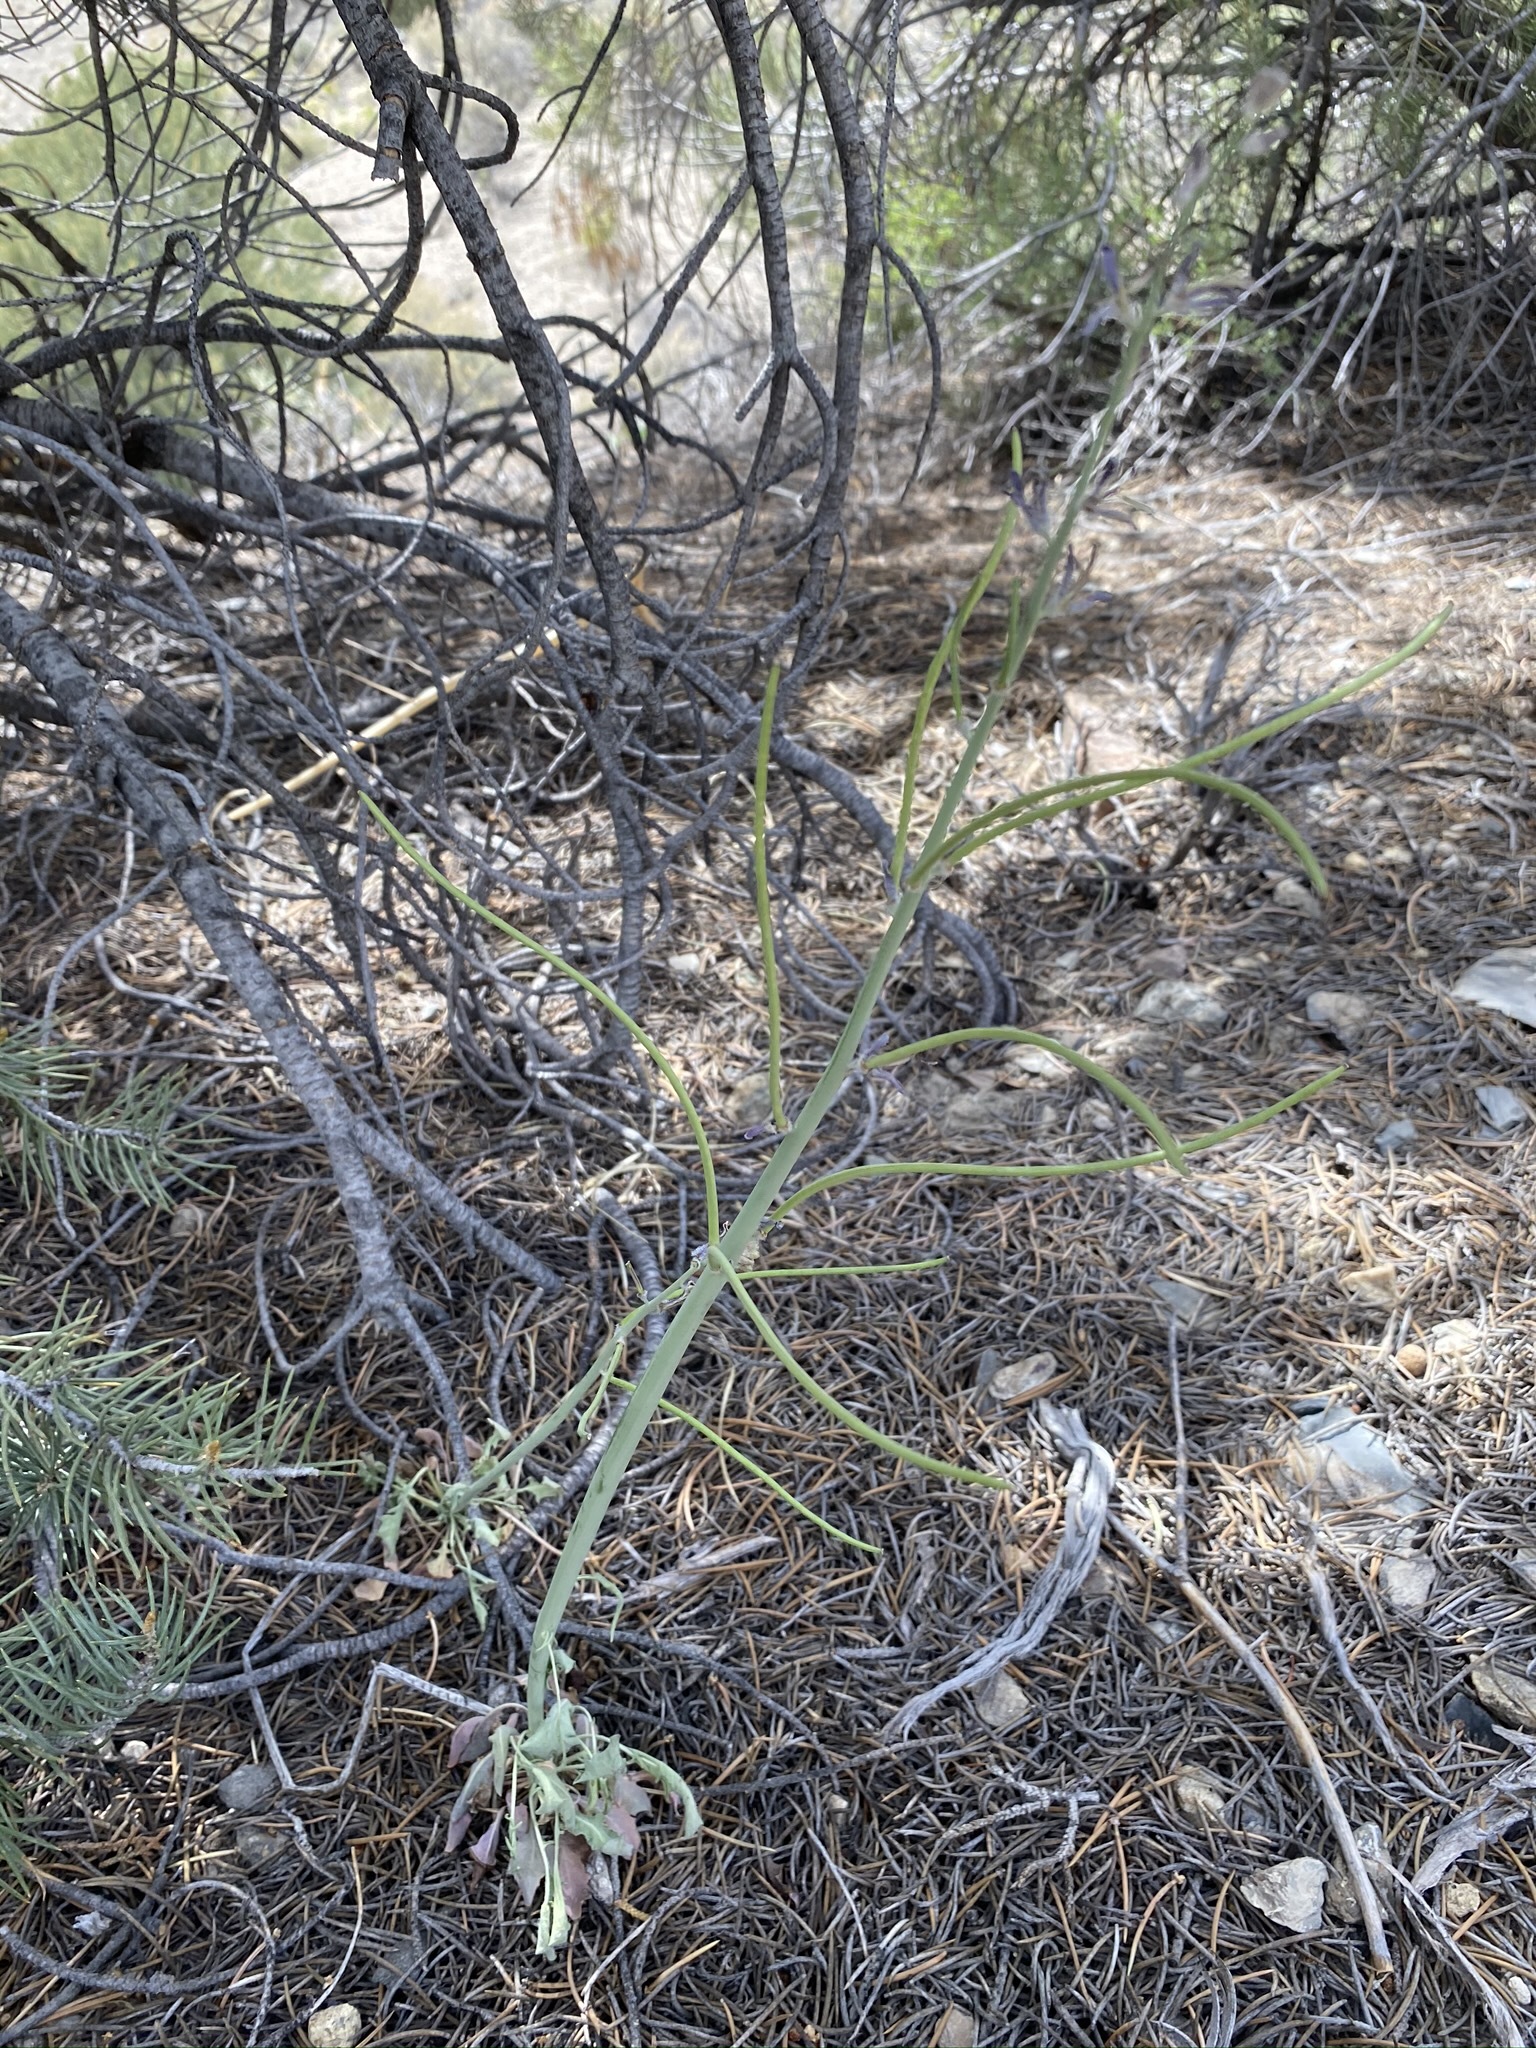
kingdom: Plantae
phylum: Tracheophyta
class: Magnoliopsida
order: Brassicales
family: Brassicaceae
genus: Streptanthus
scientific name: Streptanthus crassicaulis
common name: Thick-stem wild cabbage
